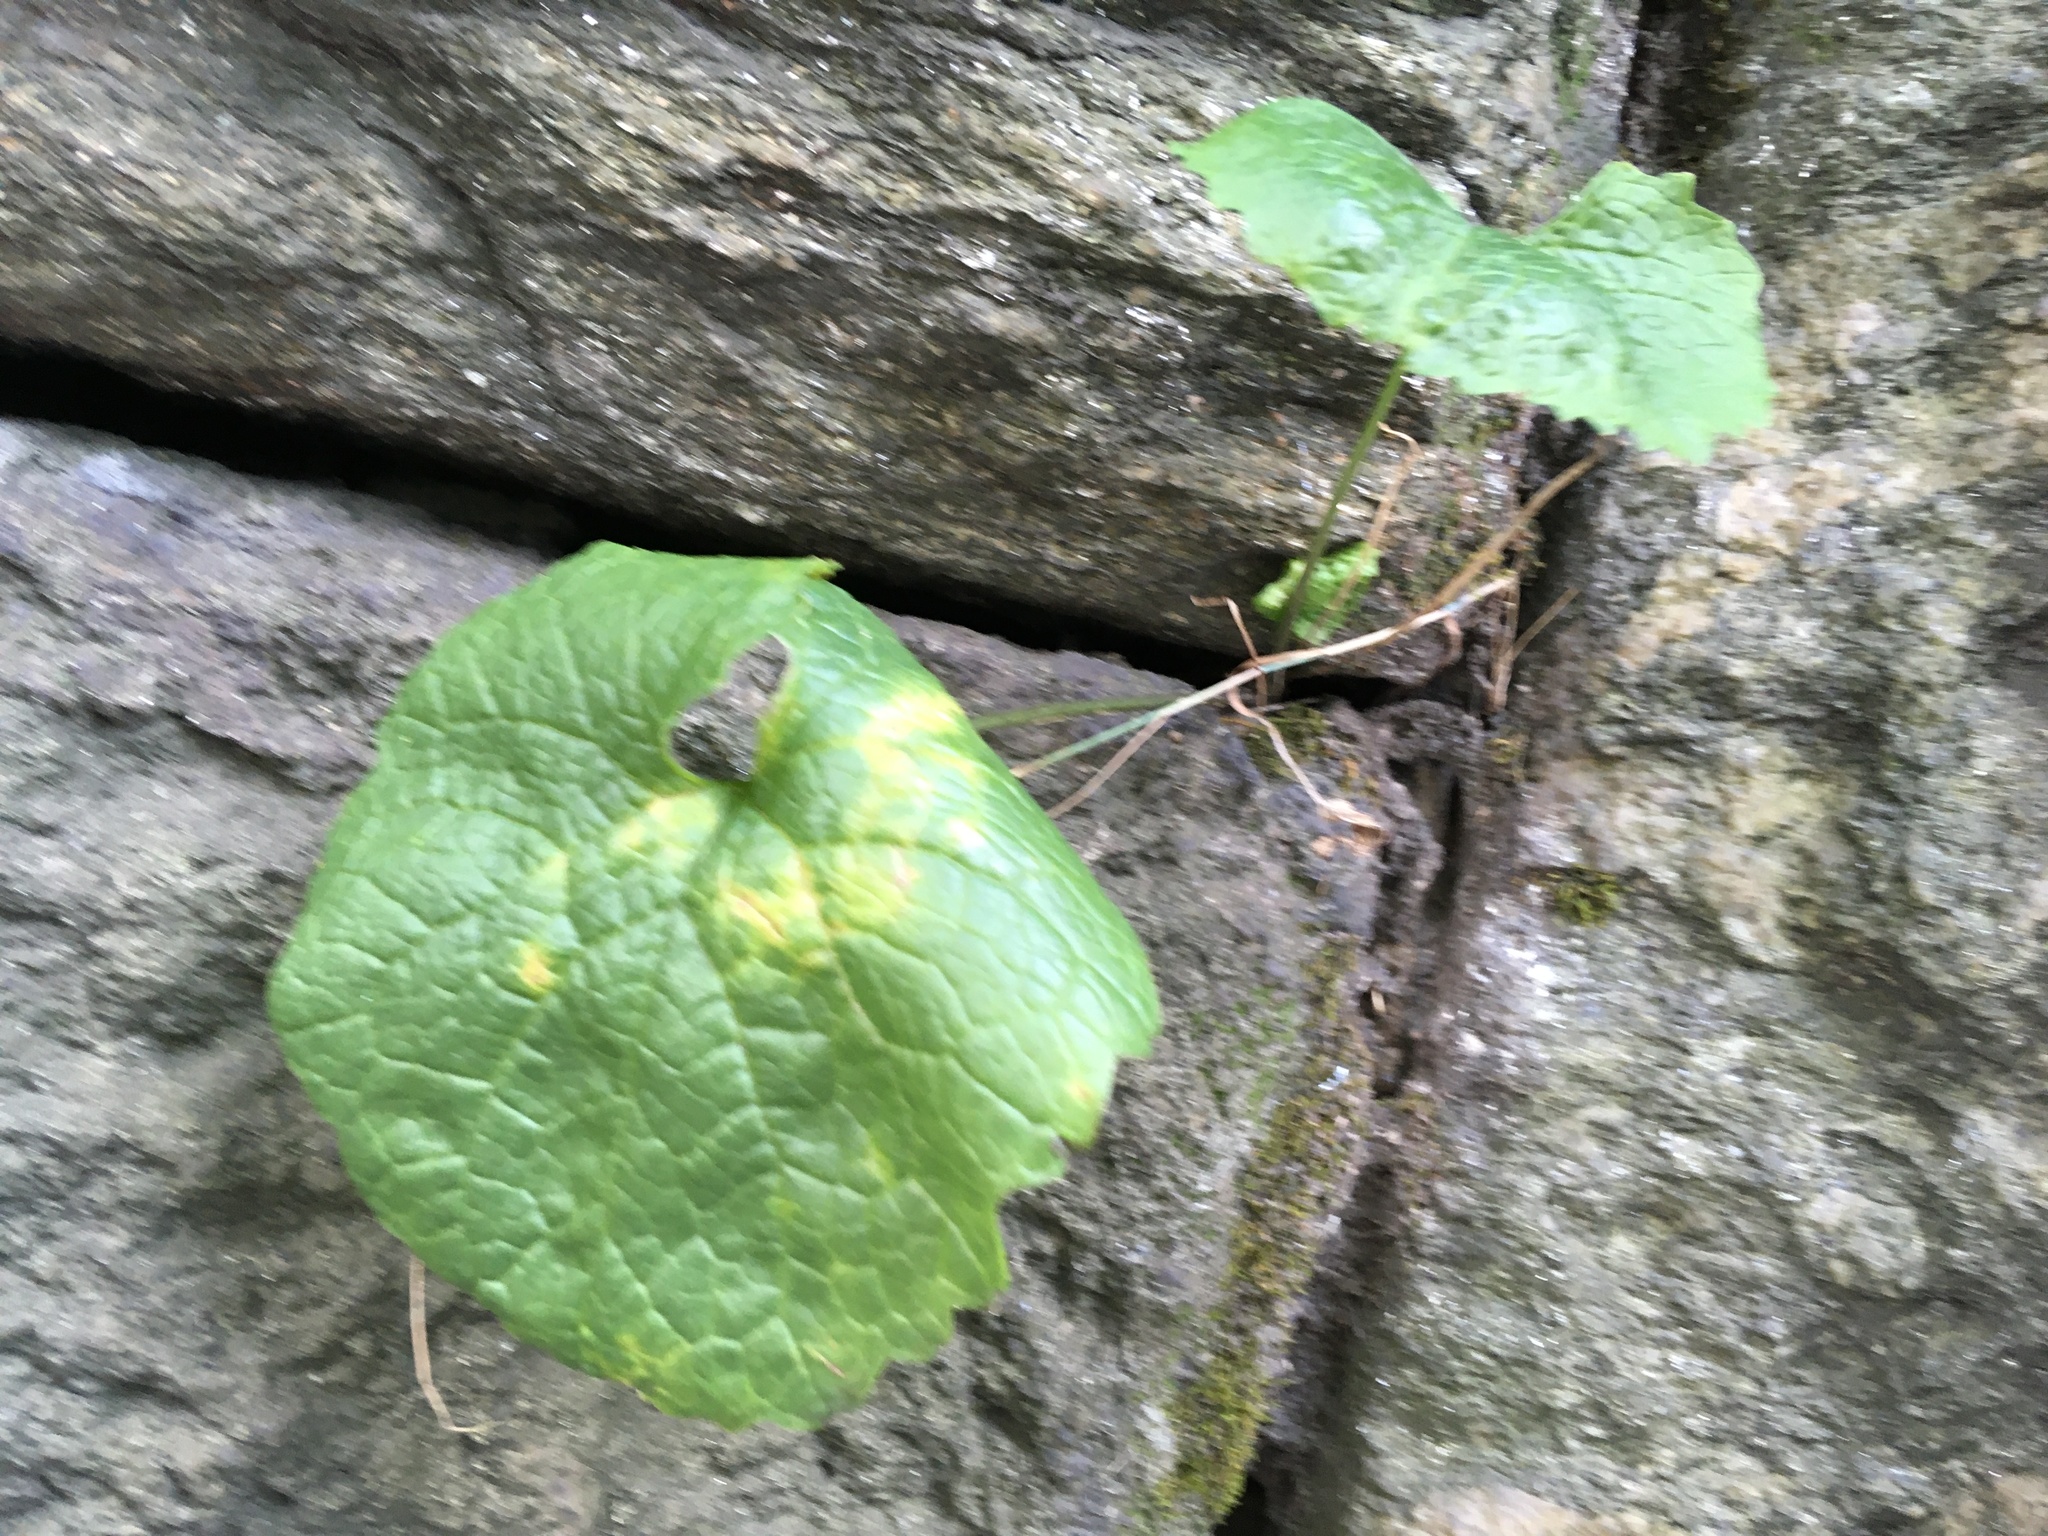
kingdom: Plantae
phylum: Tracheophyta
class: Magnoliopsida
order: Brassicales
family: Brassicaceae
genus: Alliaria
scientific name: Alliaria petiolata
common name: Garlic mustard
